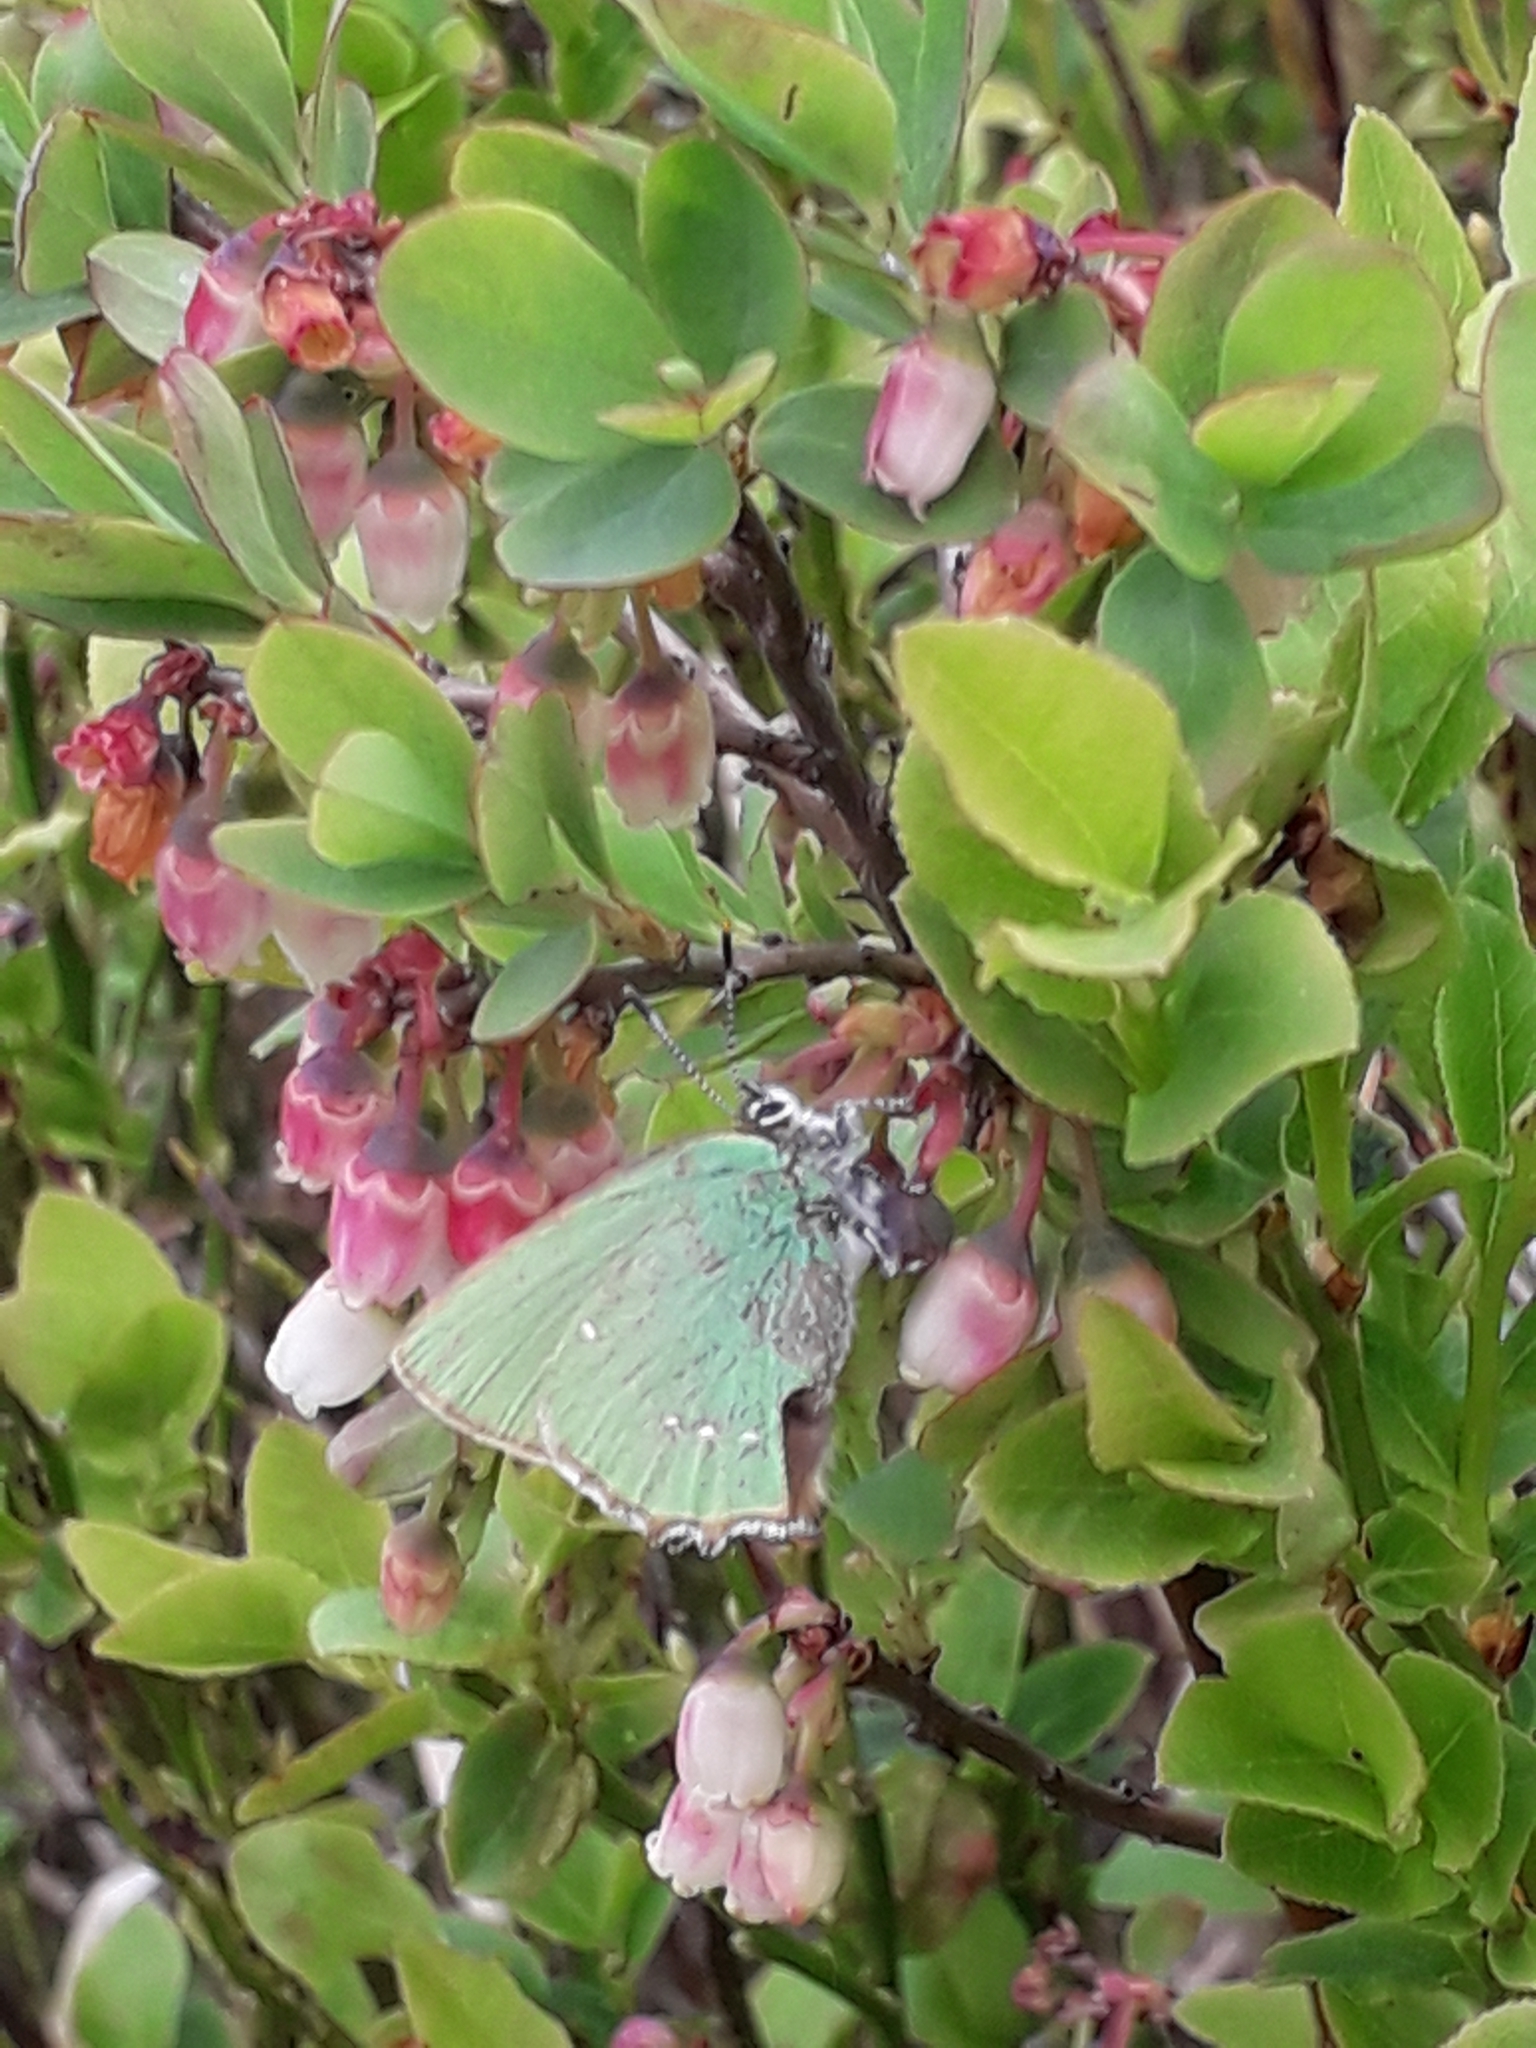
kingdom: Animalia
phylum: Arthropoda
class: Insecta
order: Lepidoptera
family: Lycaenidae
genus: Callophrys
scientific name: Callophrys rubi
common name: Green hairstreak
